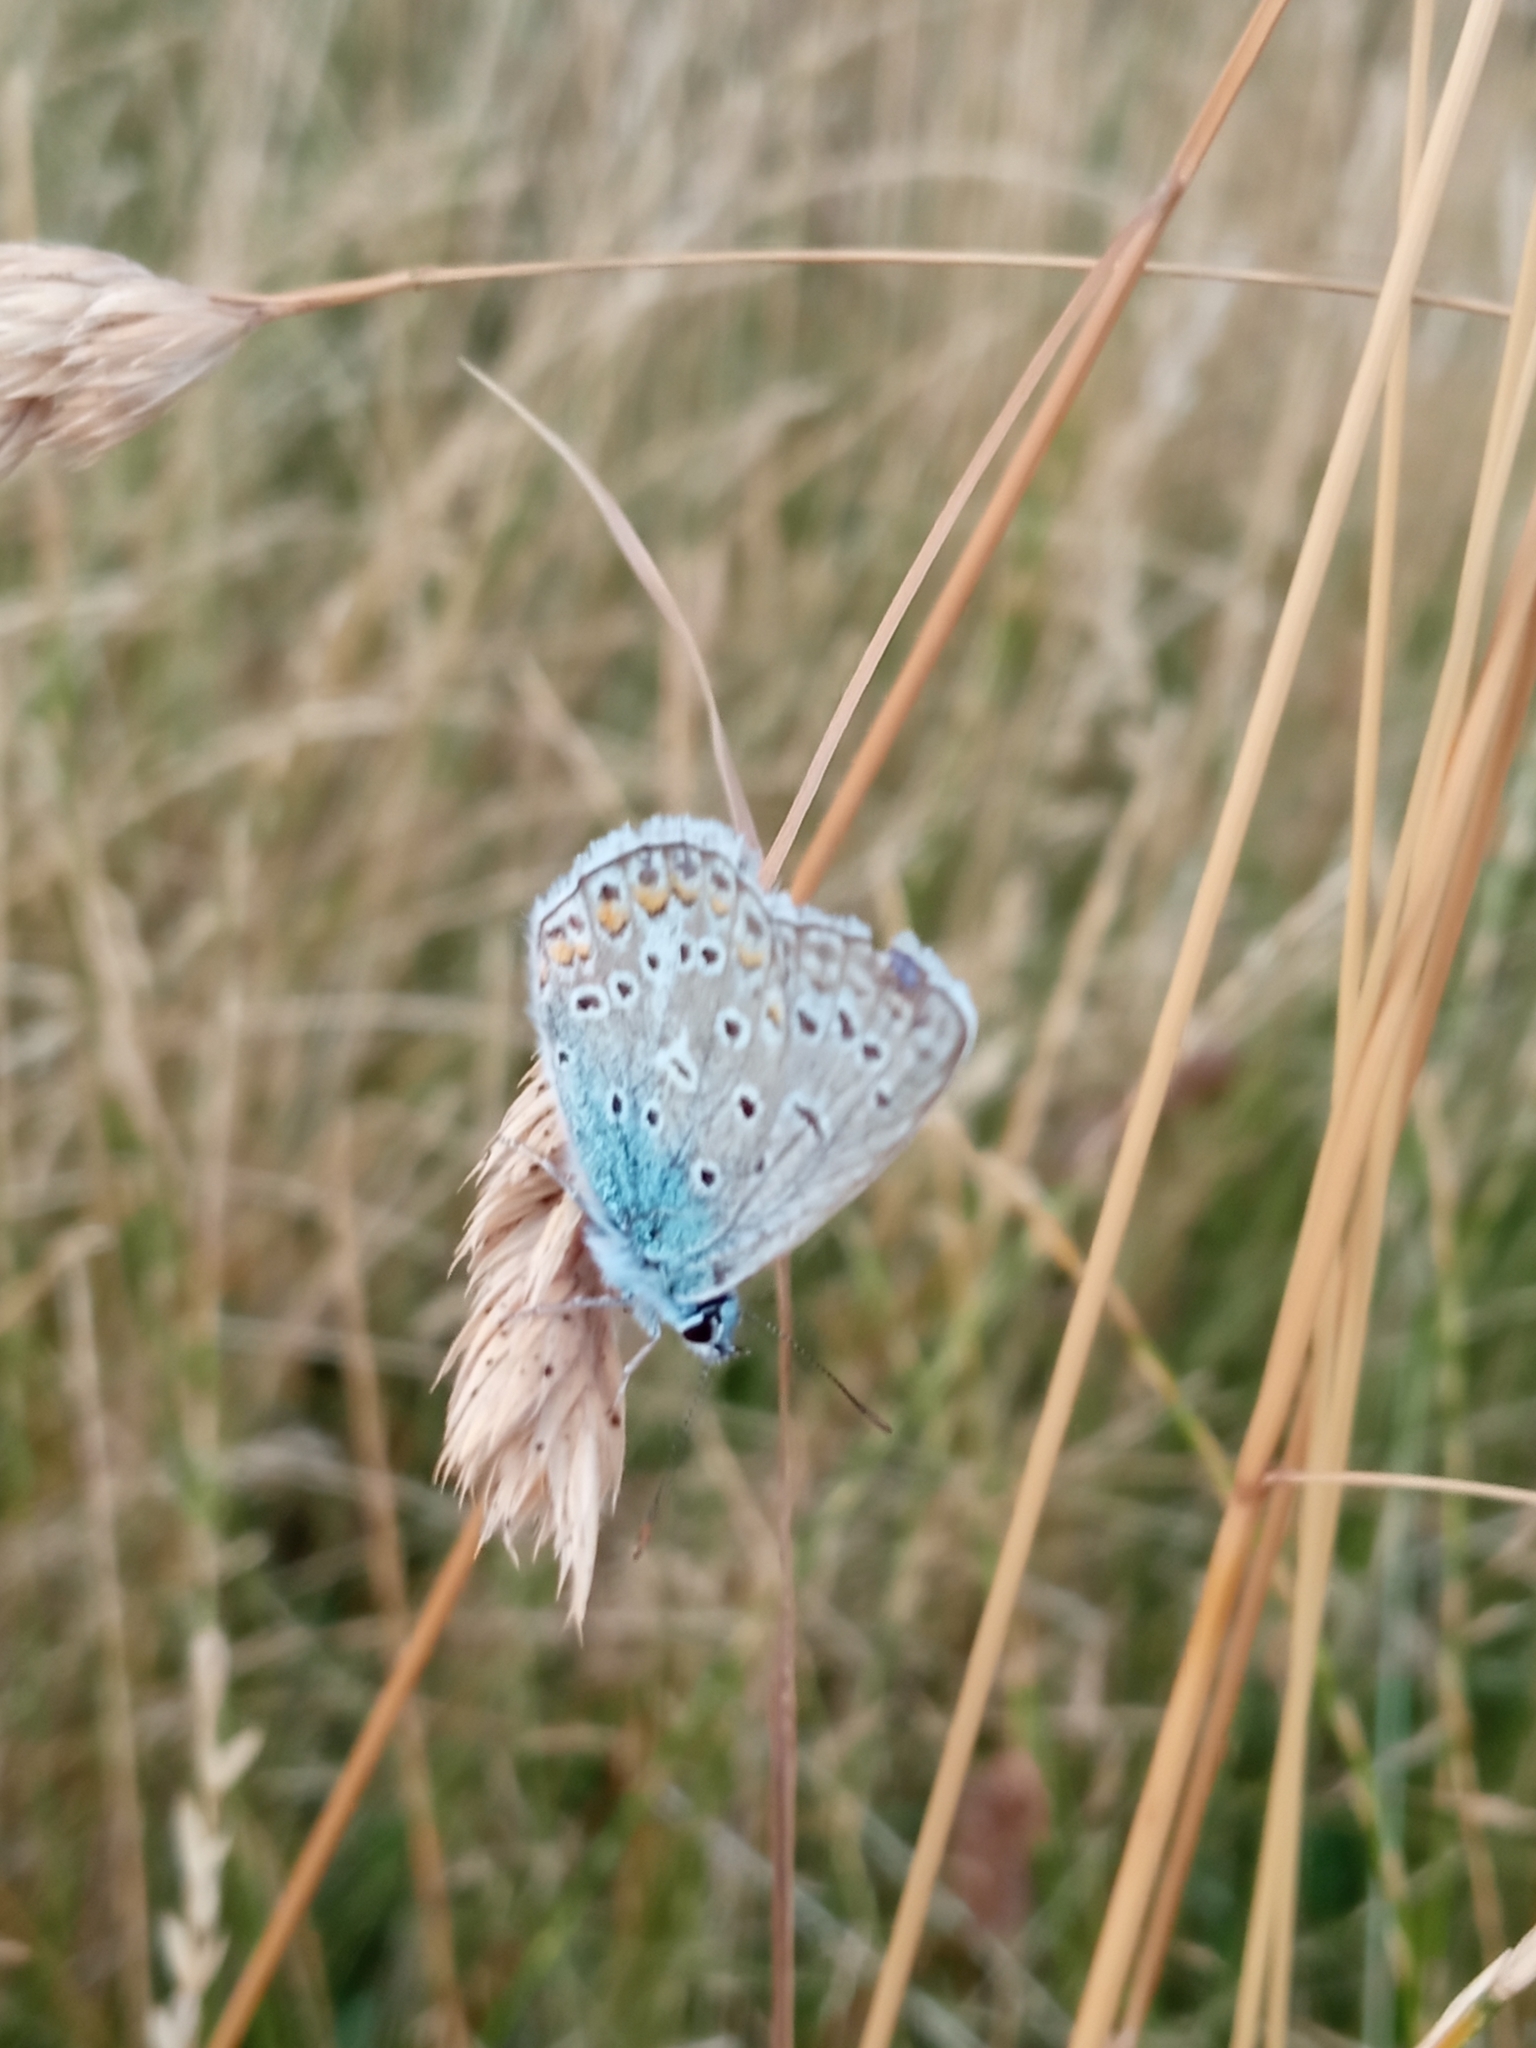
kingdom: Animalia
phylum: Arthropoda
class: Insecta
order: Lepidoptera
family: Lycaenidae
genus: Polyommatus
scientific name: Polyommatus icarus
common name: Common blue
